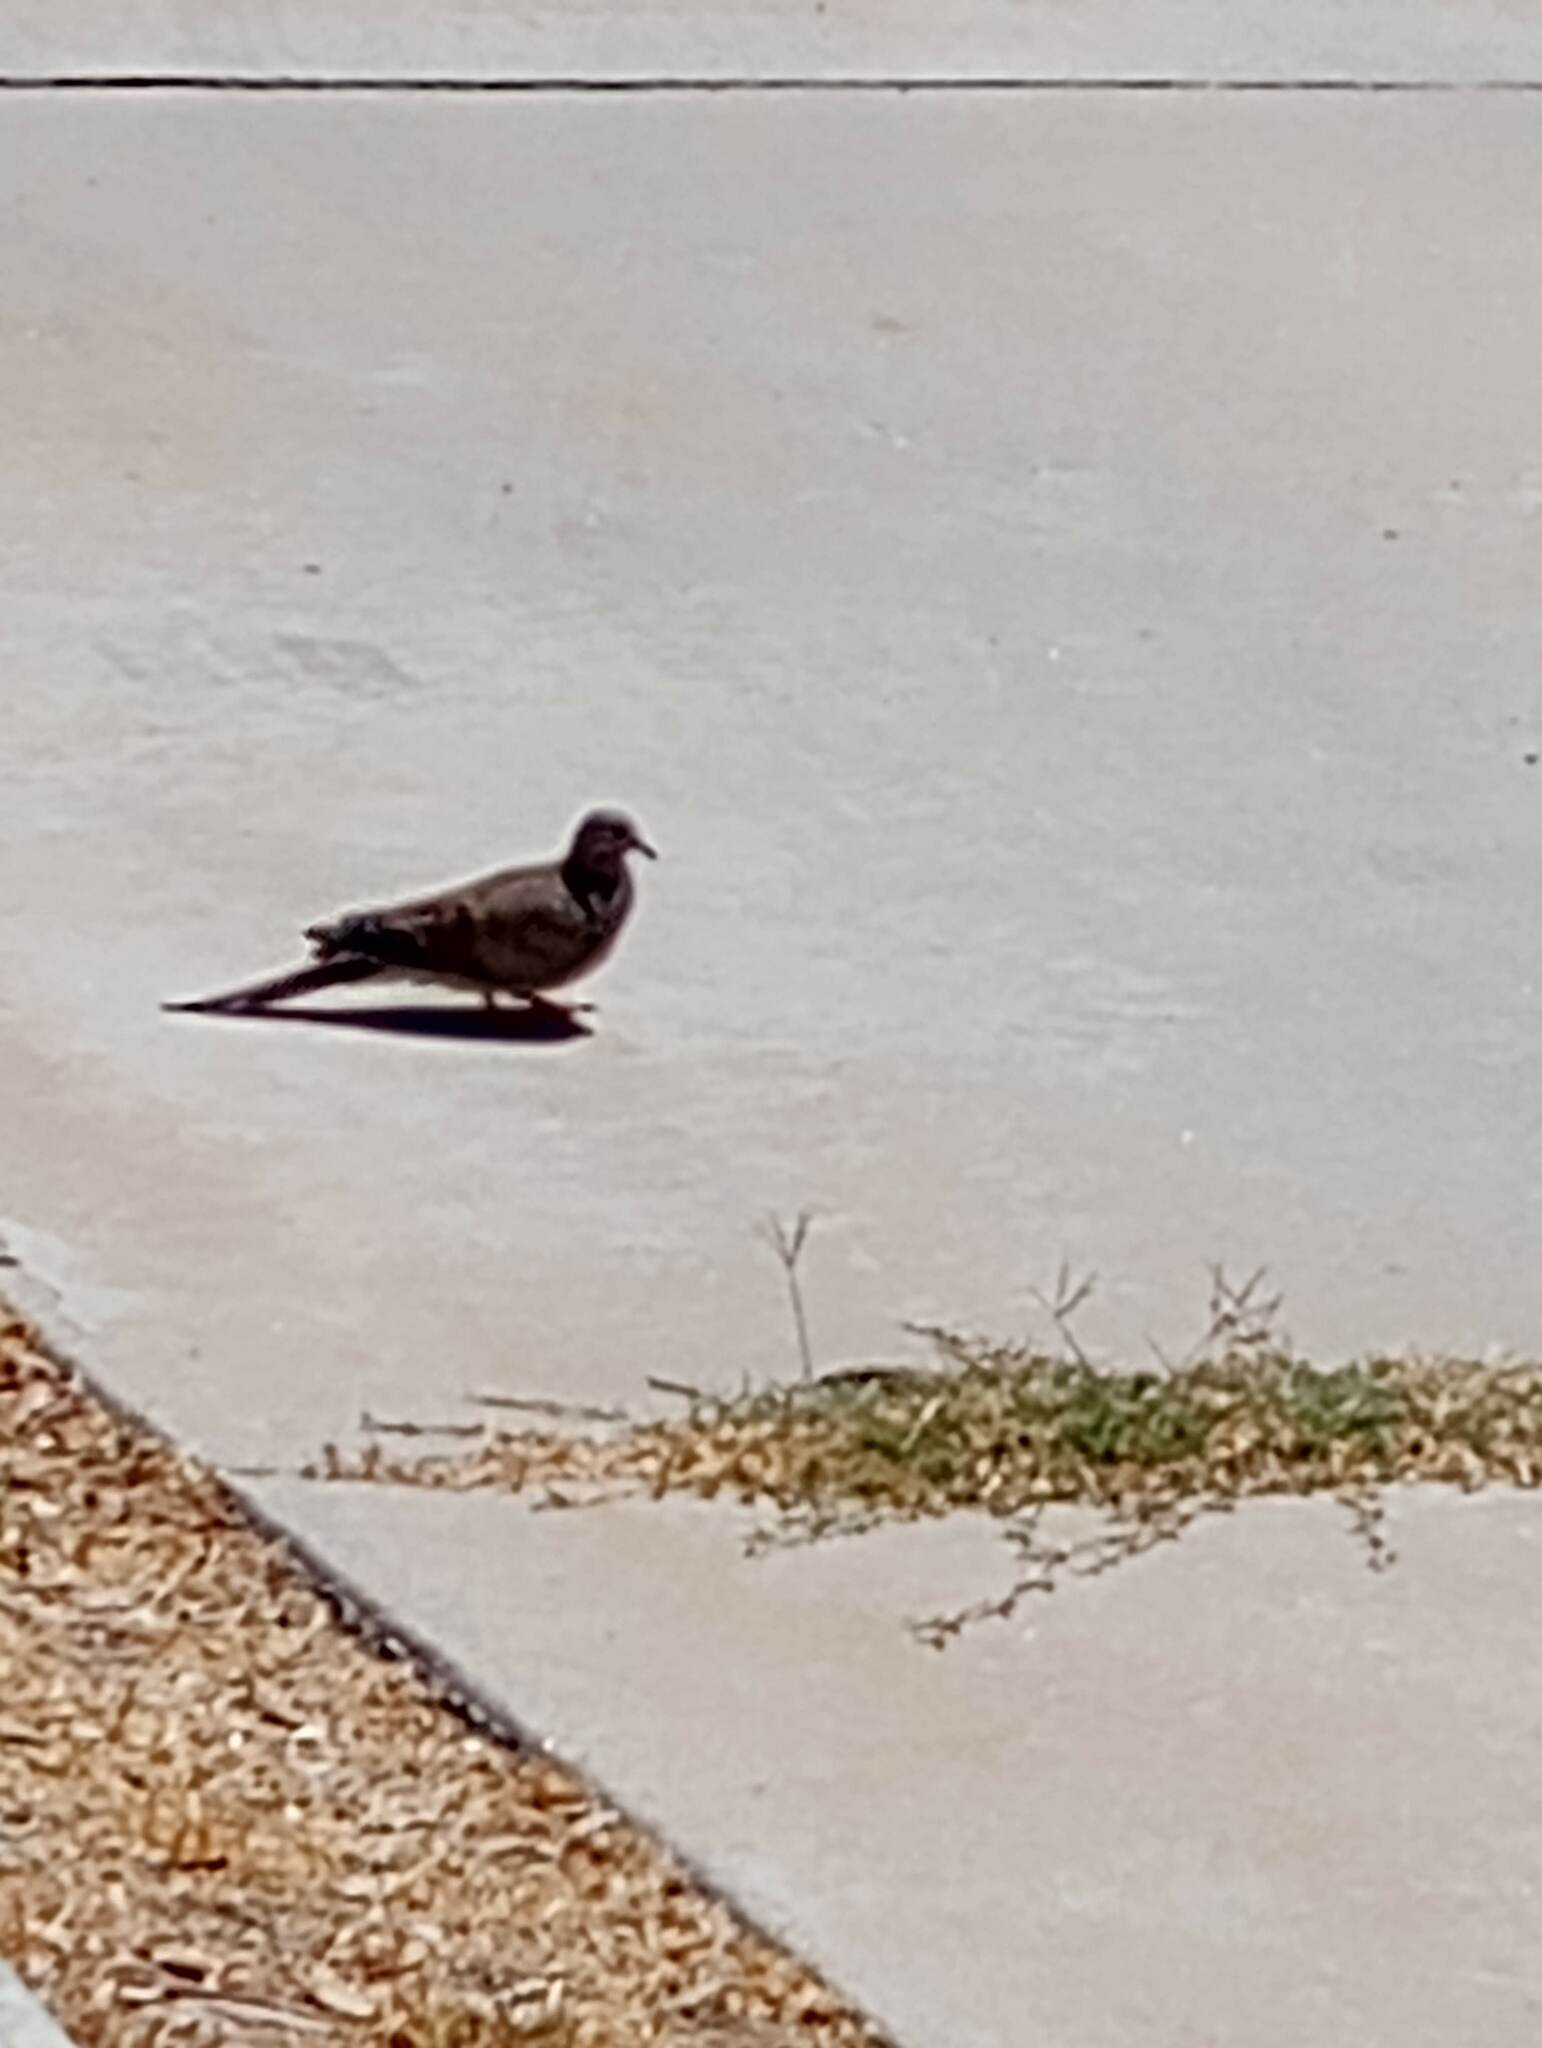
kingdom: Animalia
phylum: Chordata
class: Aves
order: Columbiformes
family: Columbidae
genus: Zenaida
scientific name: Zenaida macroura
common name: Mourning dove
